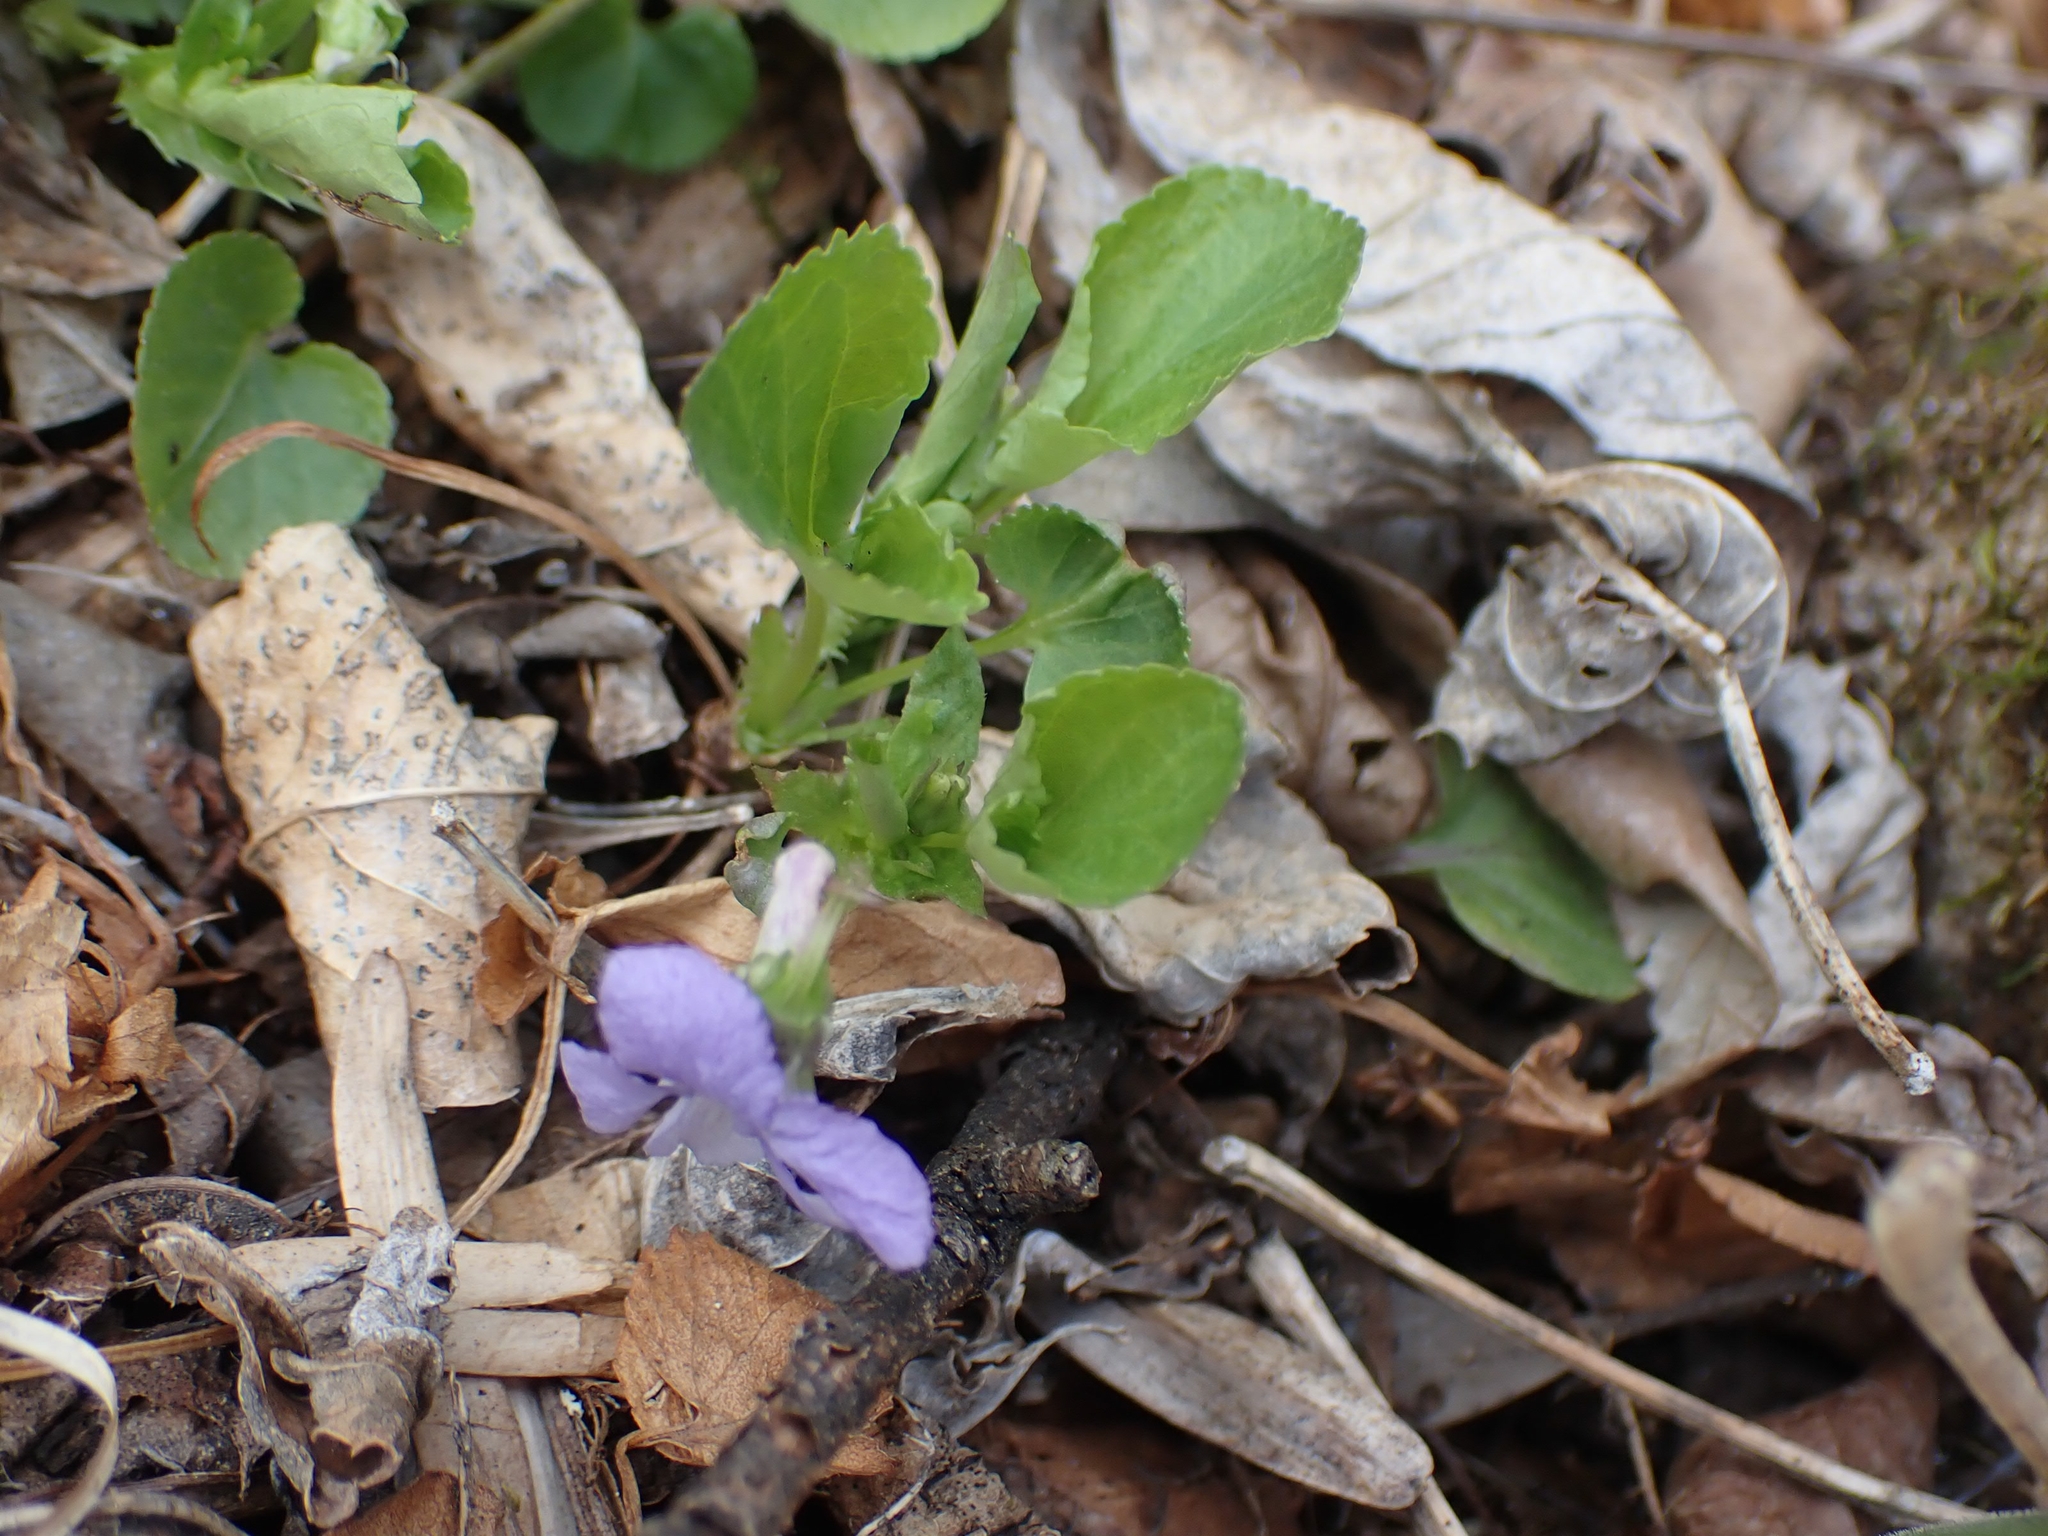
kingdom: Plantae
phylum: Tracheophyta
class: Magnoliopsida
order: Malpighiales
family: Violaceae
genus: Viola
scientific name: Viola selkirkii
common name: Selkirk's violet
